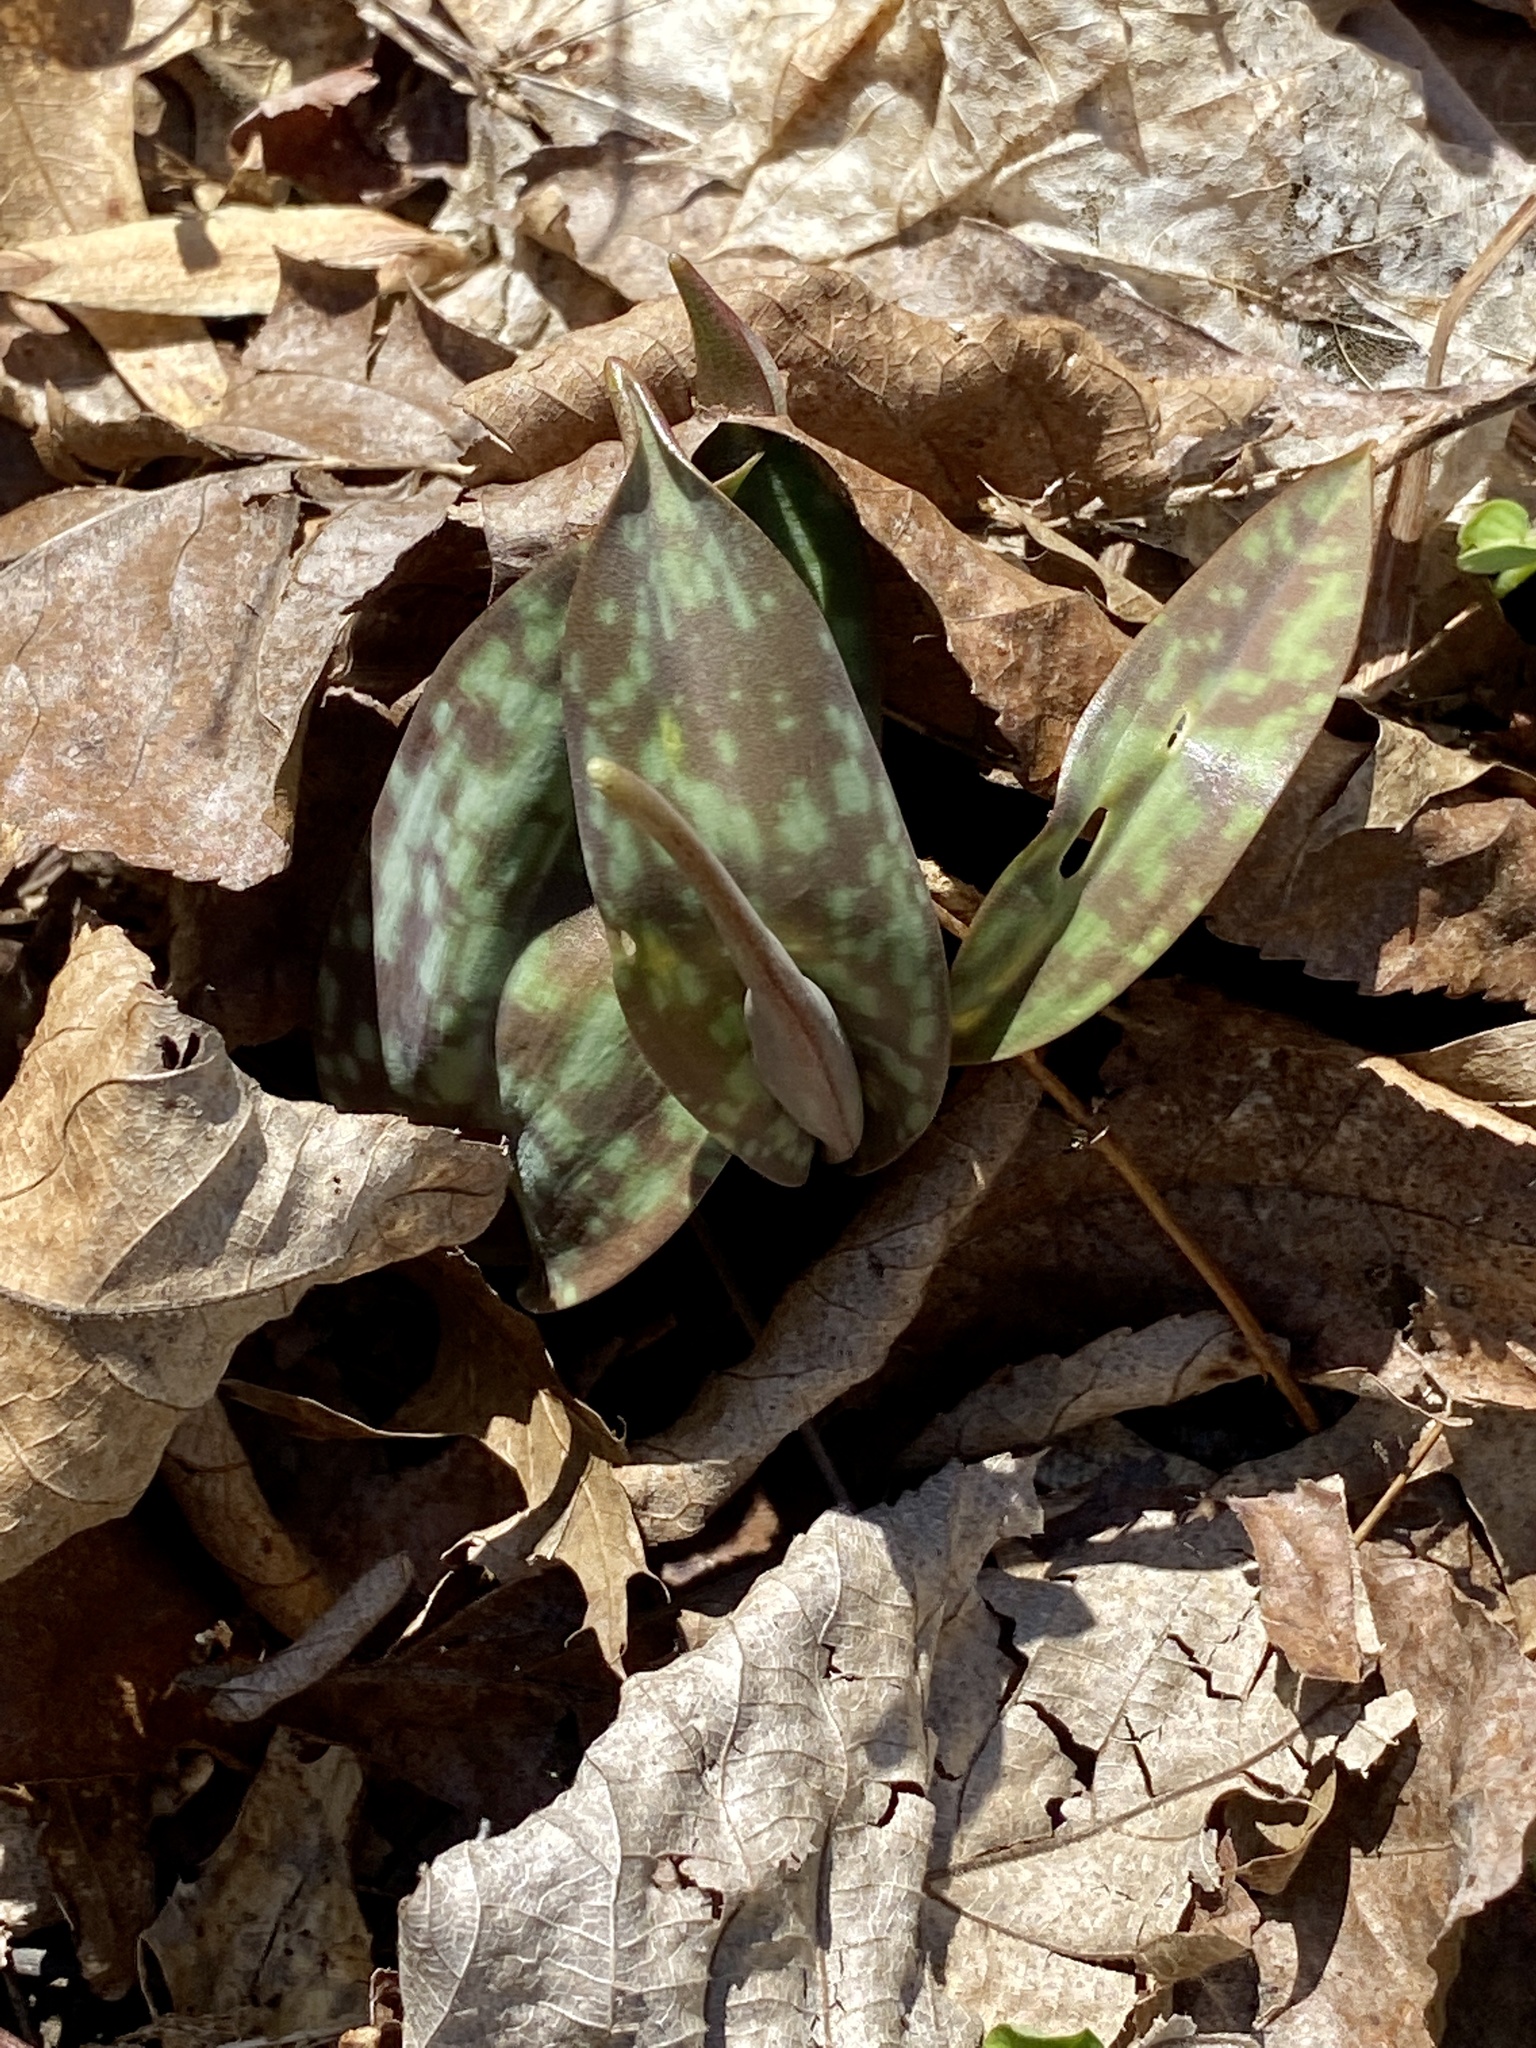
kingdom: Plantae
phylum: Tracheophyta
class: Liliopsida
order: Liliales
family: Liliaceae
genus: Erythronium
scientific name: Erythronium americanum
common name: Yellow adder's-tongue
